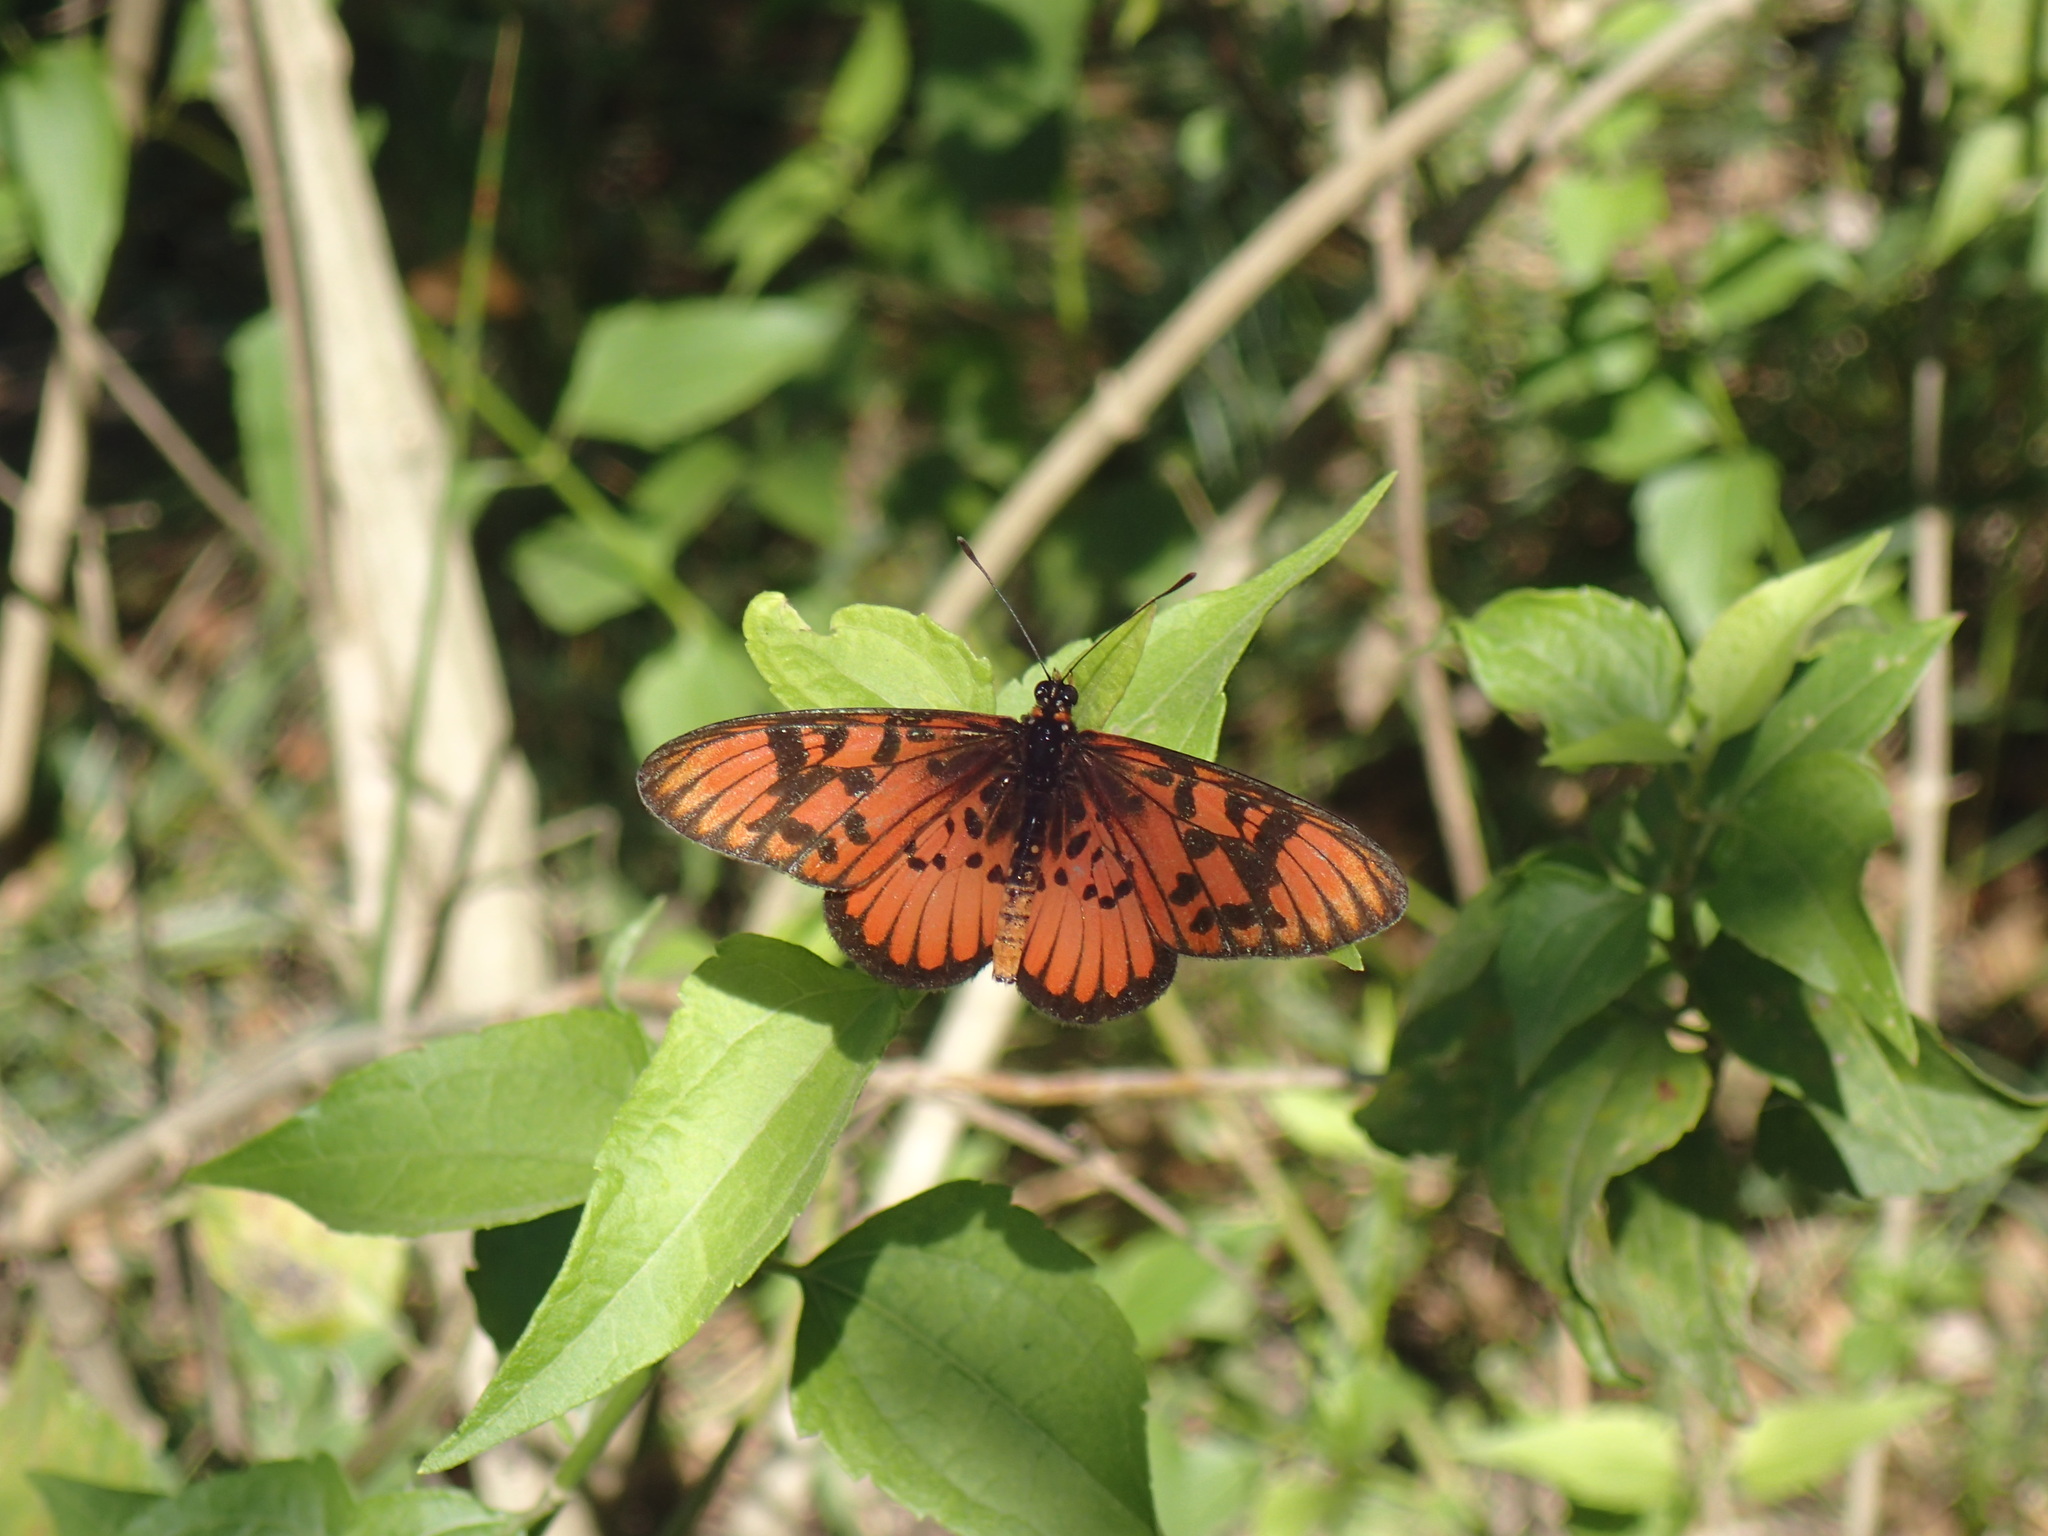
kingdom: Animalia
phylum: Arthropoda
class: Insecta
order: Lepidoptera
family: Nymphalidae
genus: Rubraea
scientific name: Rubraea
